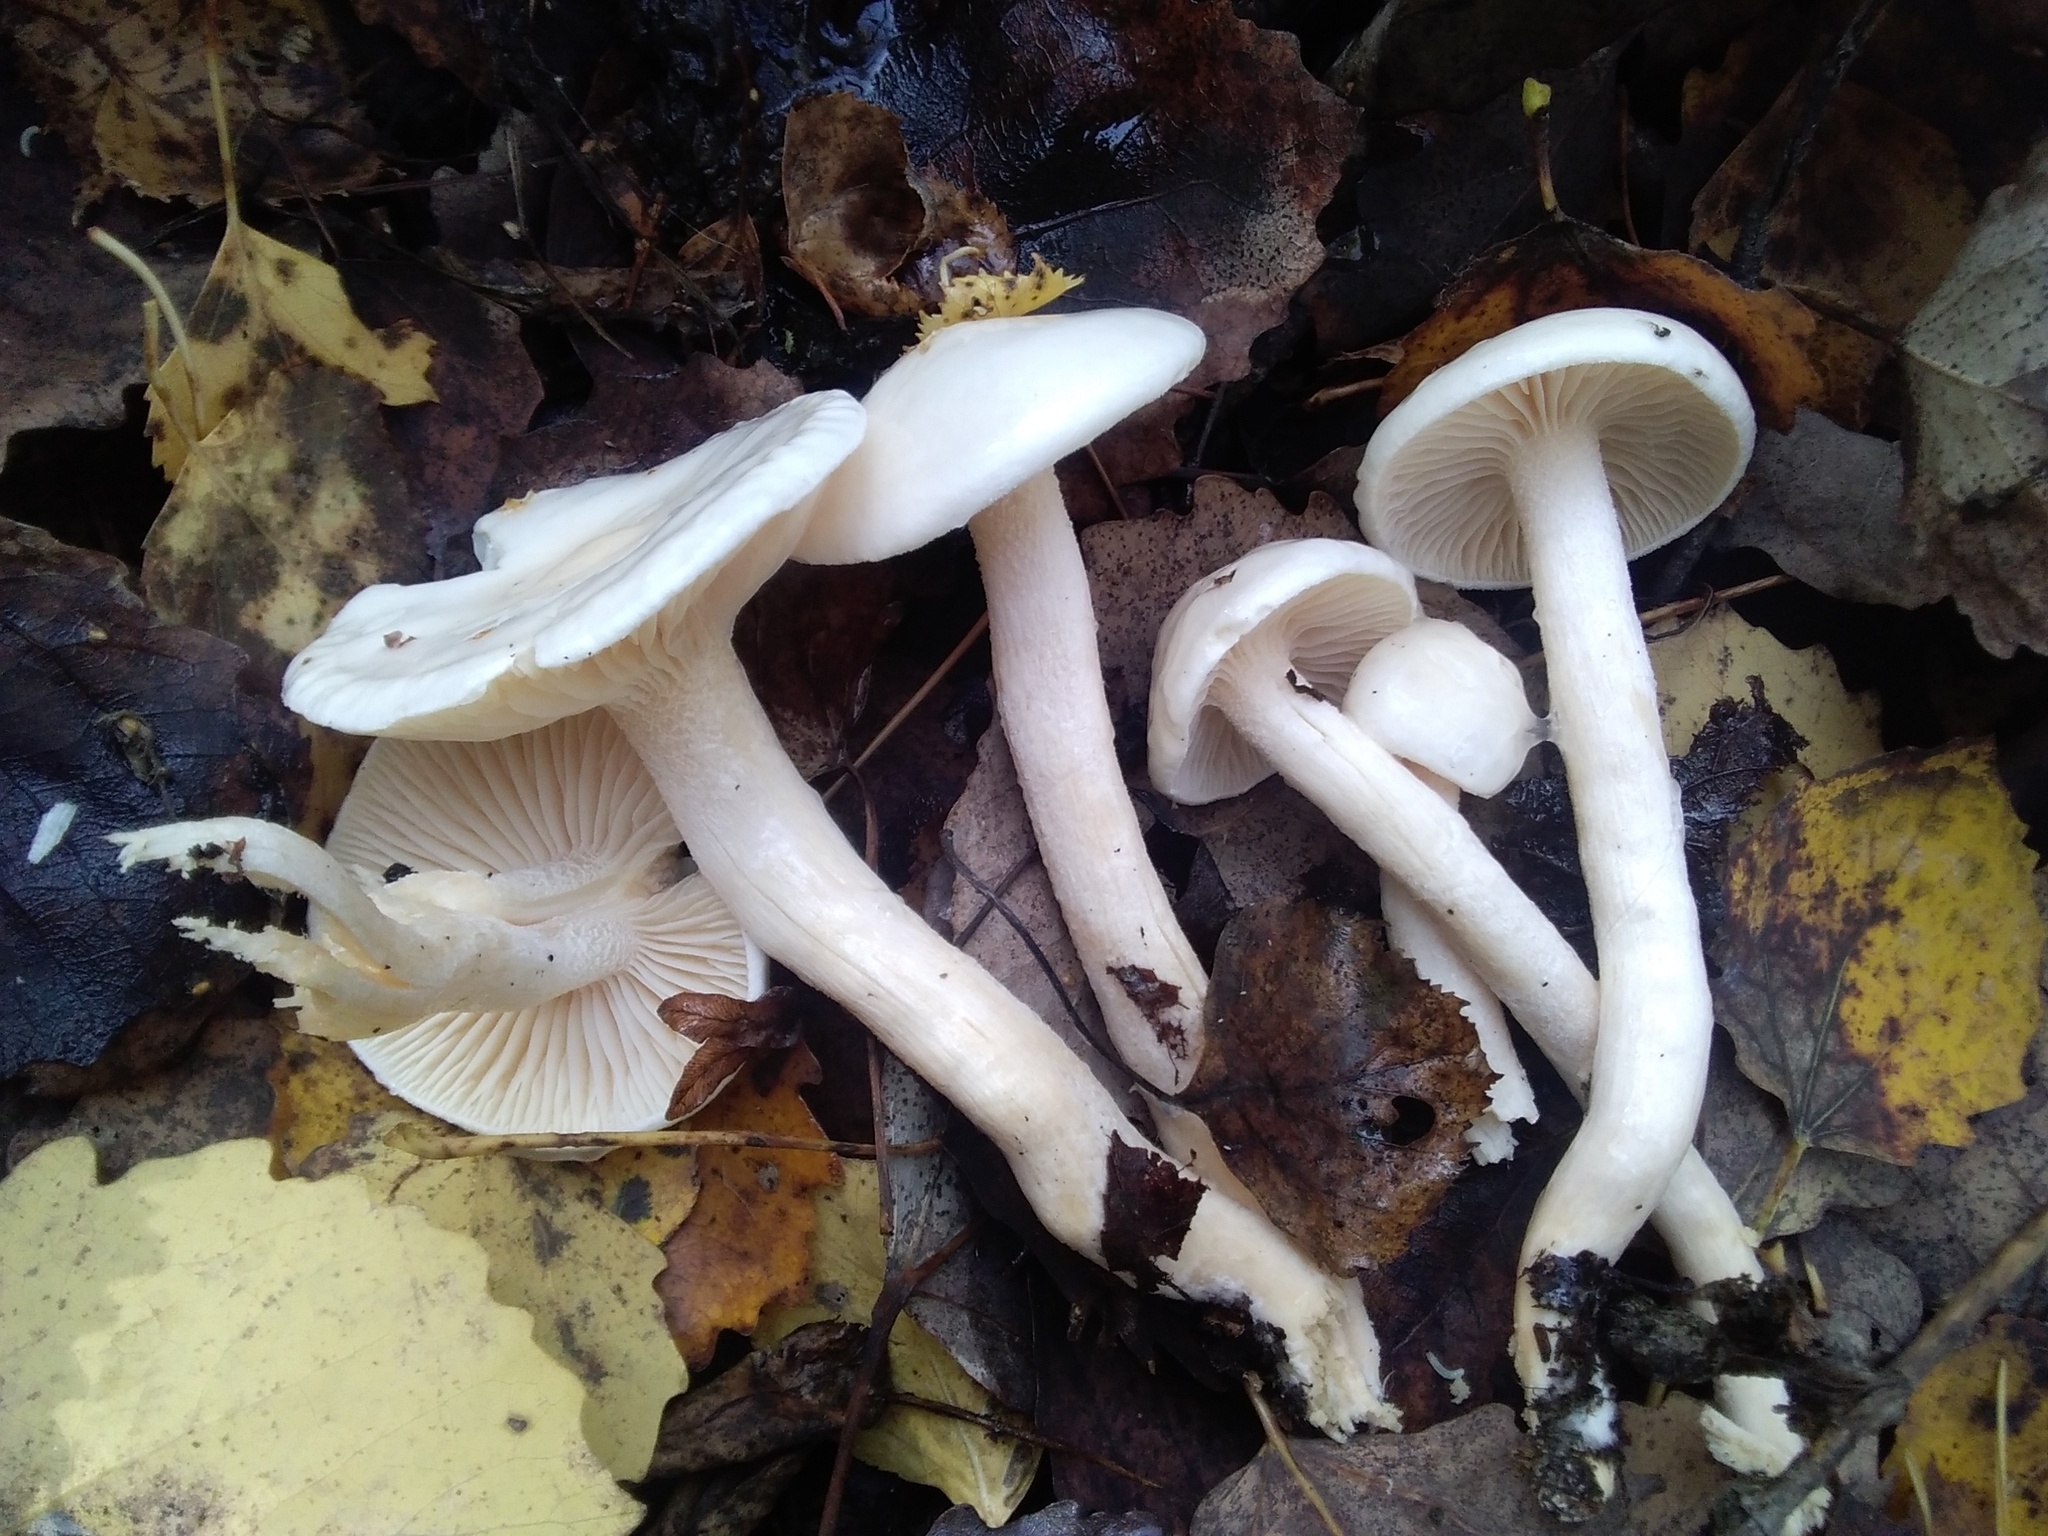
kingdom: Fungi
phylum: Basidiomycota
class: Agaricomycetes
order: Agaricales
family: Hygrophoraceae
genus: Hygrophorus
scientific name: Hygrophorus hedrychii
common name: Sweet woodwax
